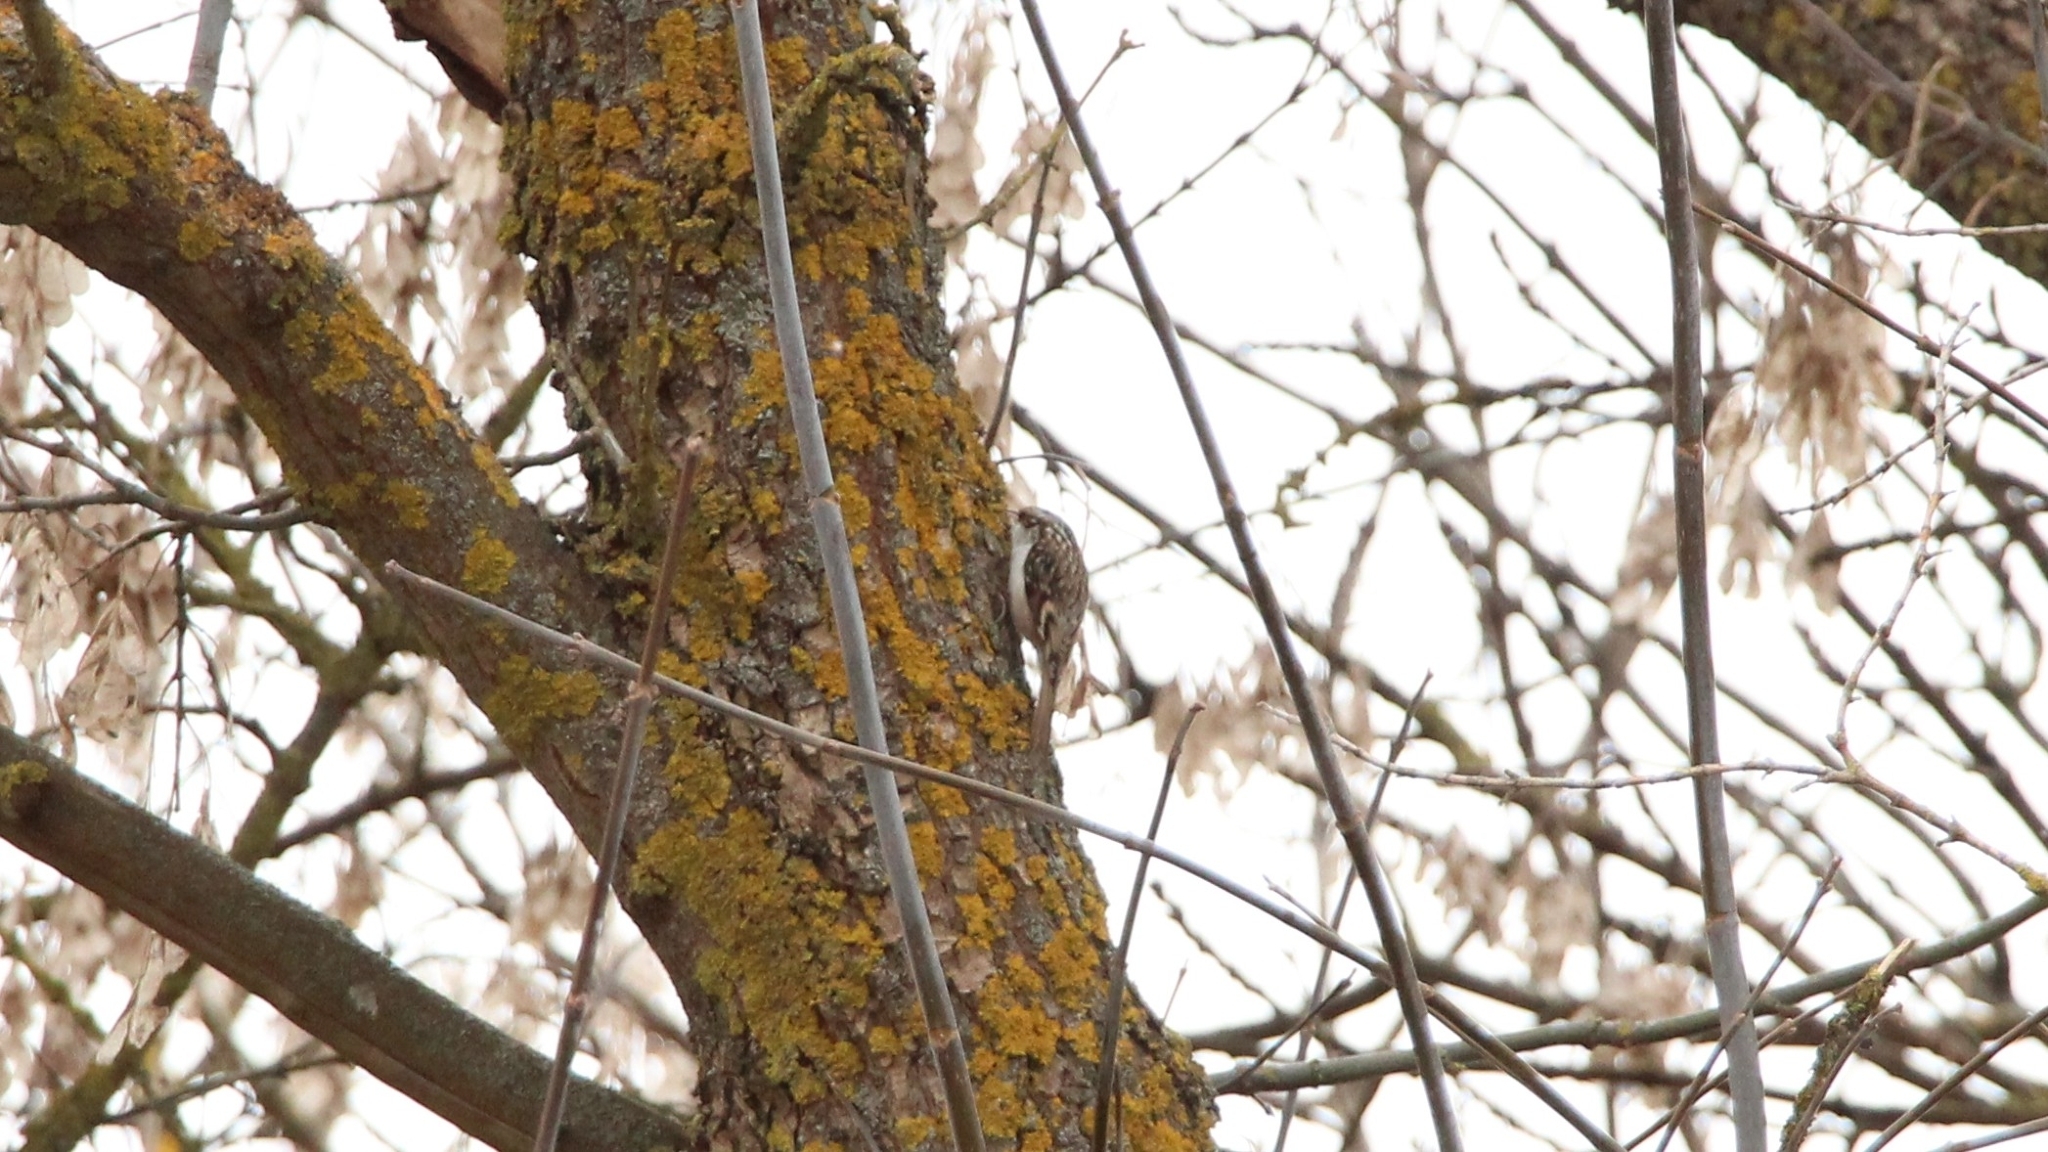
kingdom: Animalia
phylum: Chordata
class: Aves
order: Passeriformes
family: Certhiidae
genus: Certhia
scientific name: Certhia familiaris
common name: Eurasian treecreeper
